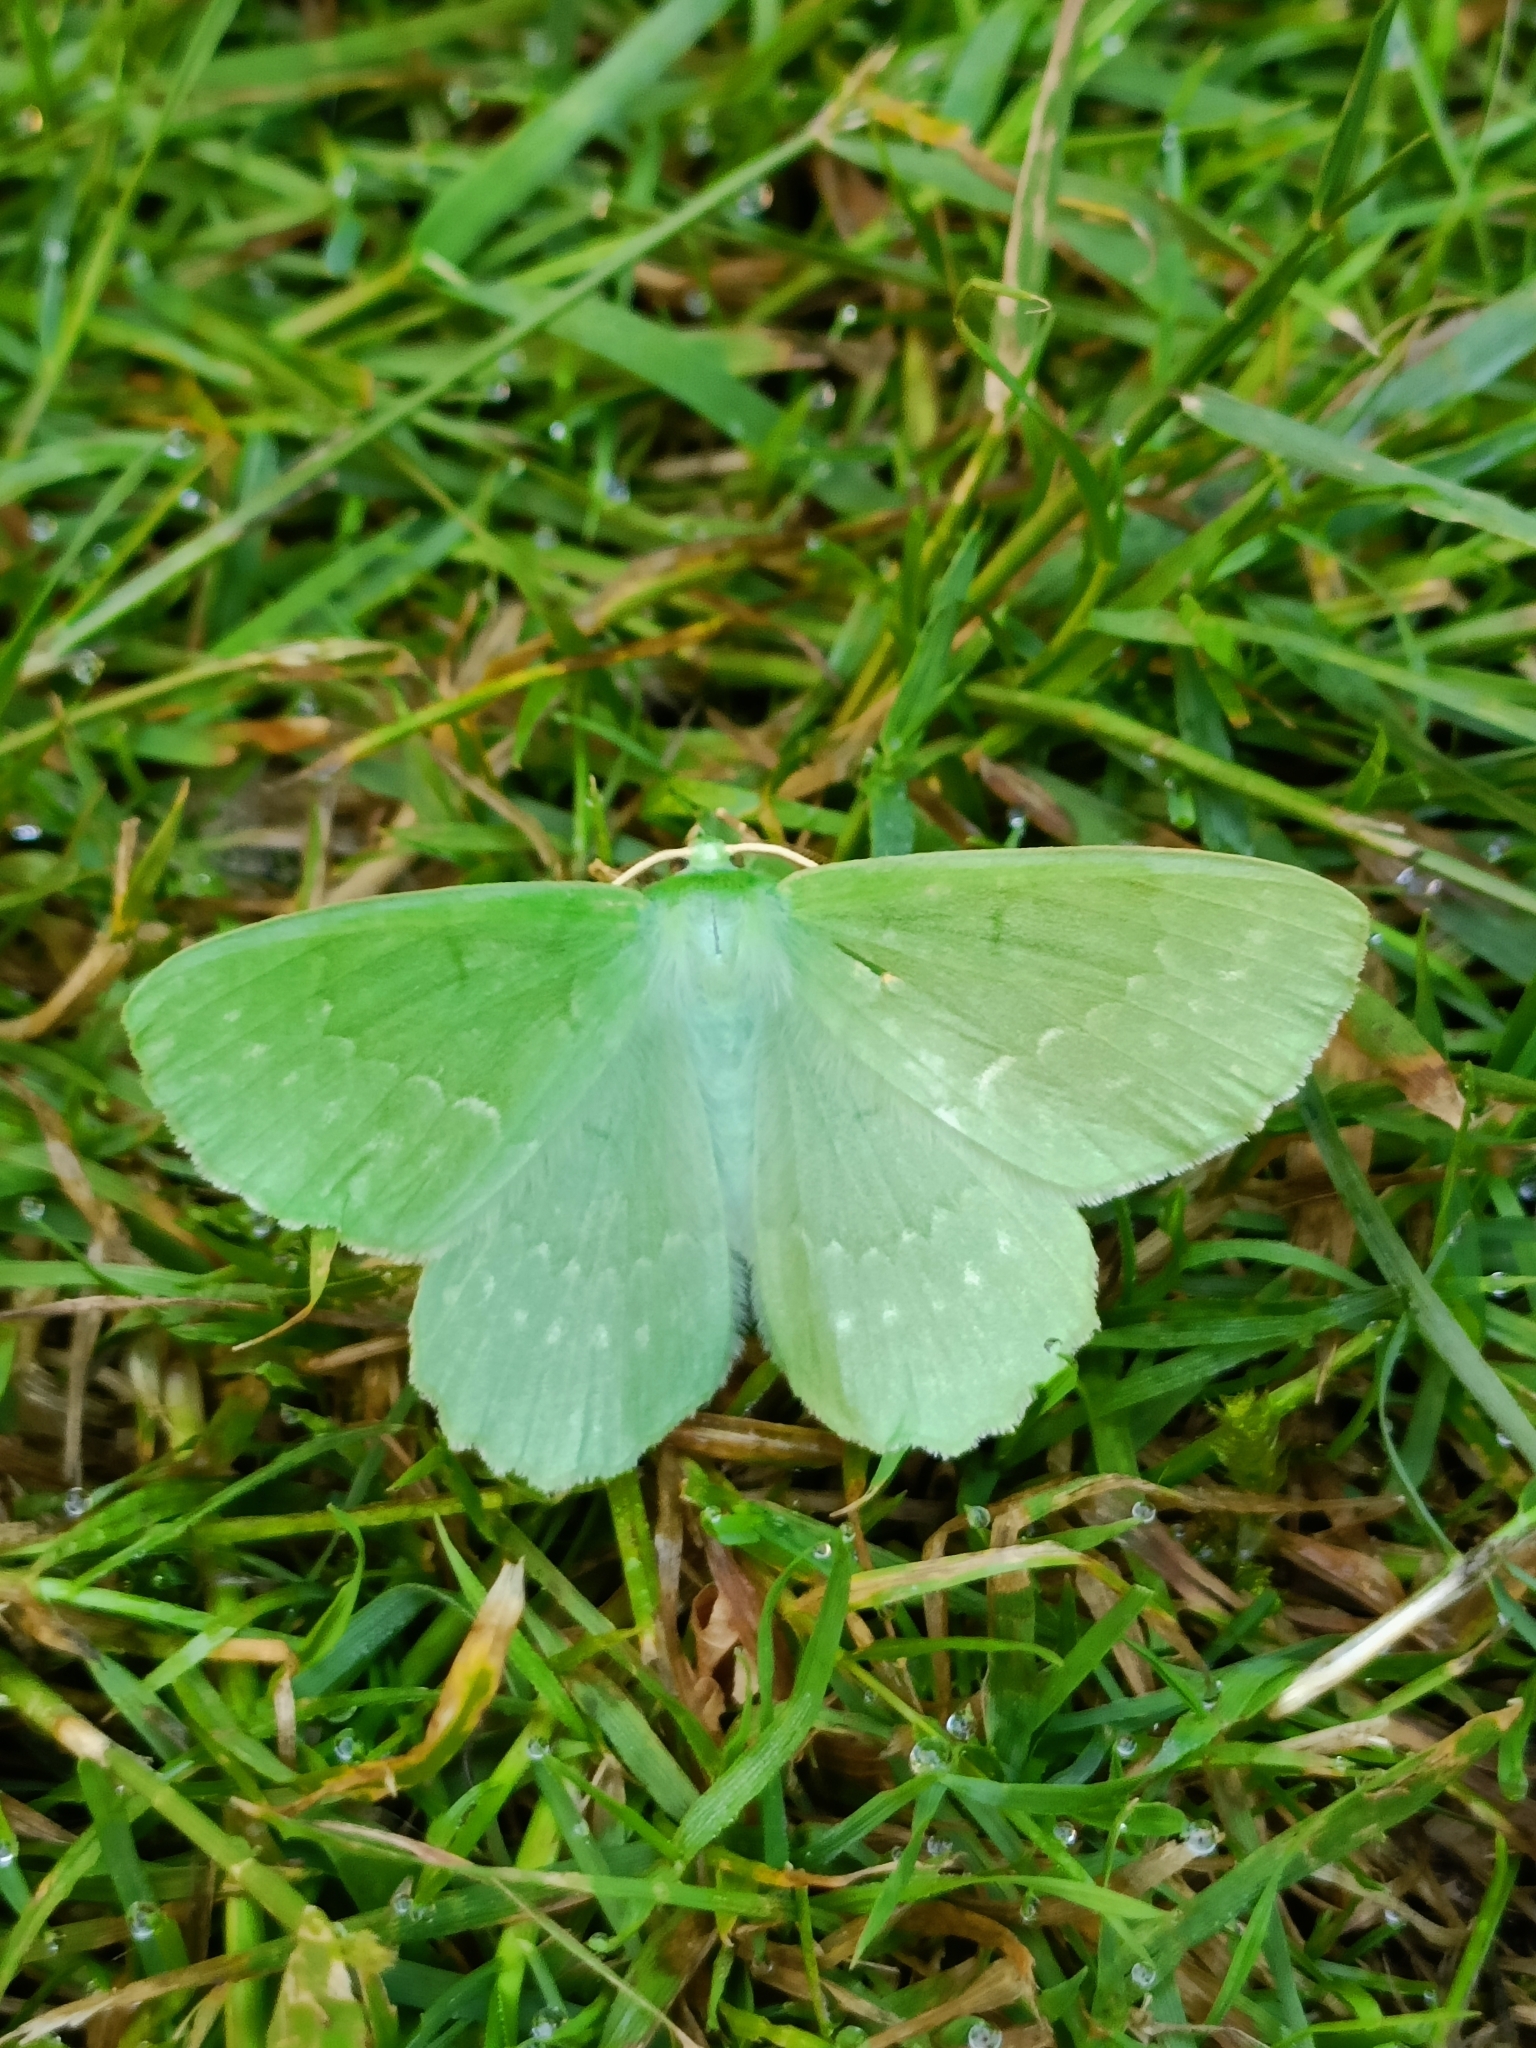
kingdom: Animalia
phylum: Arthropoda
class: Insecta
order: Lepidoptera
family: Geometridae
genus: Geometra
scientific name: Geometra papilionaria
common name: Large emerald
